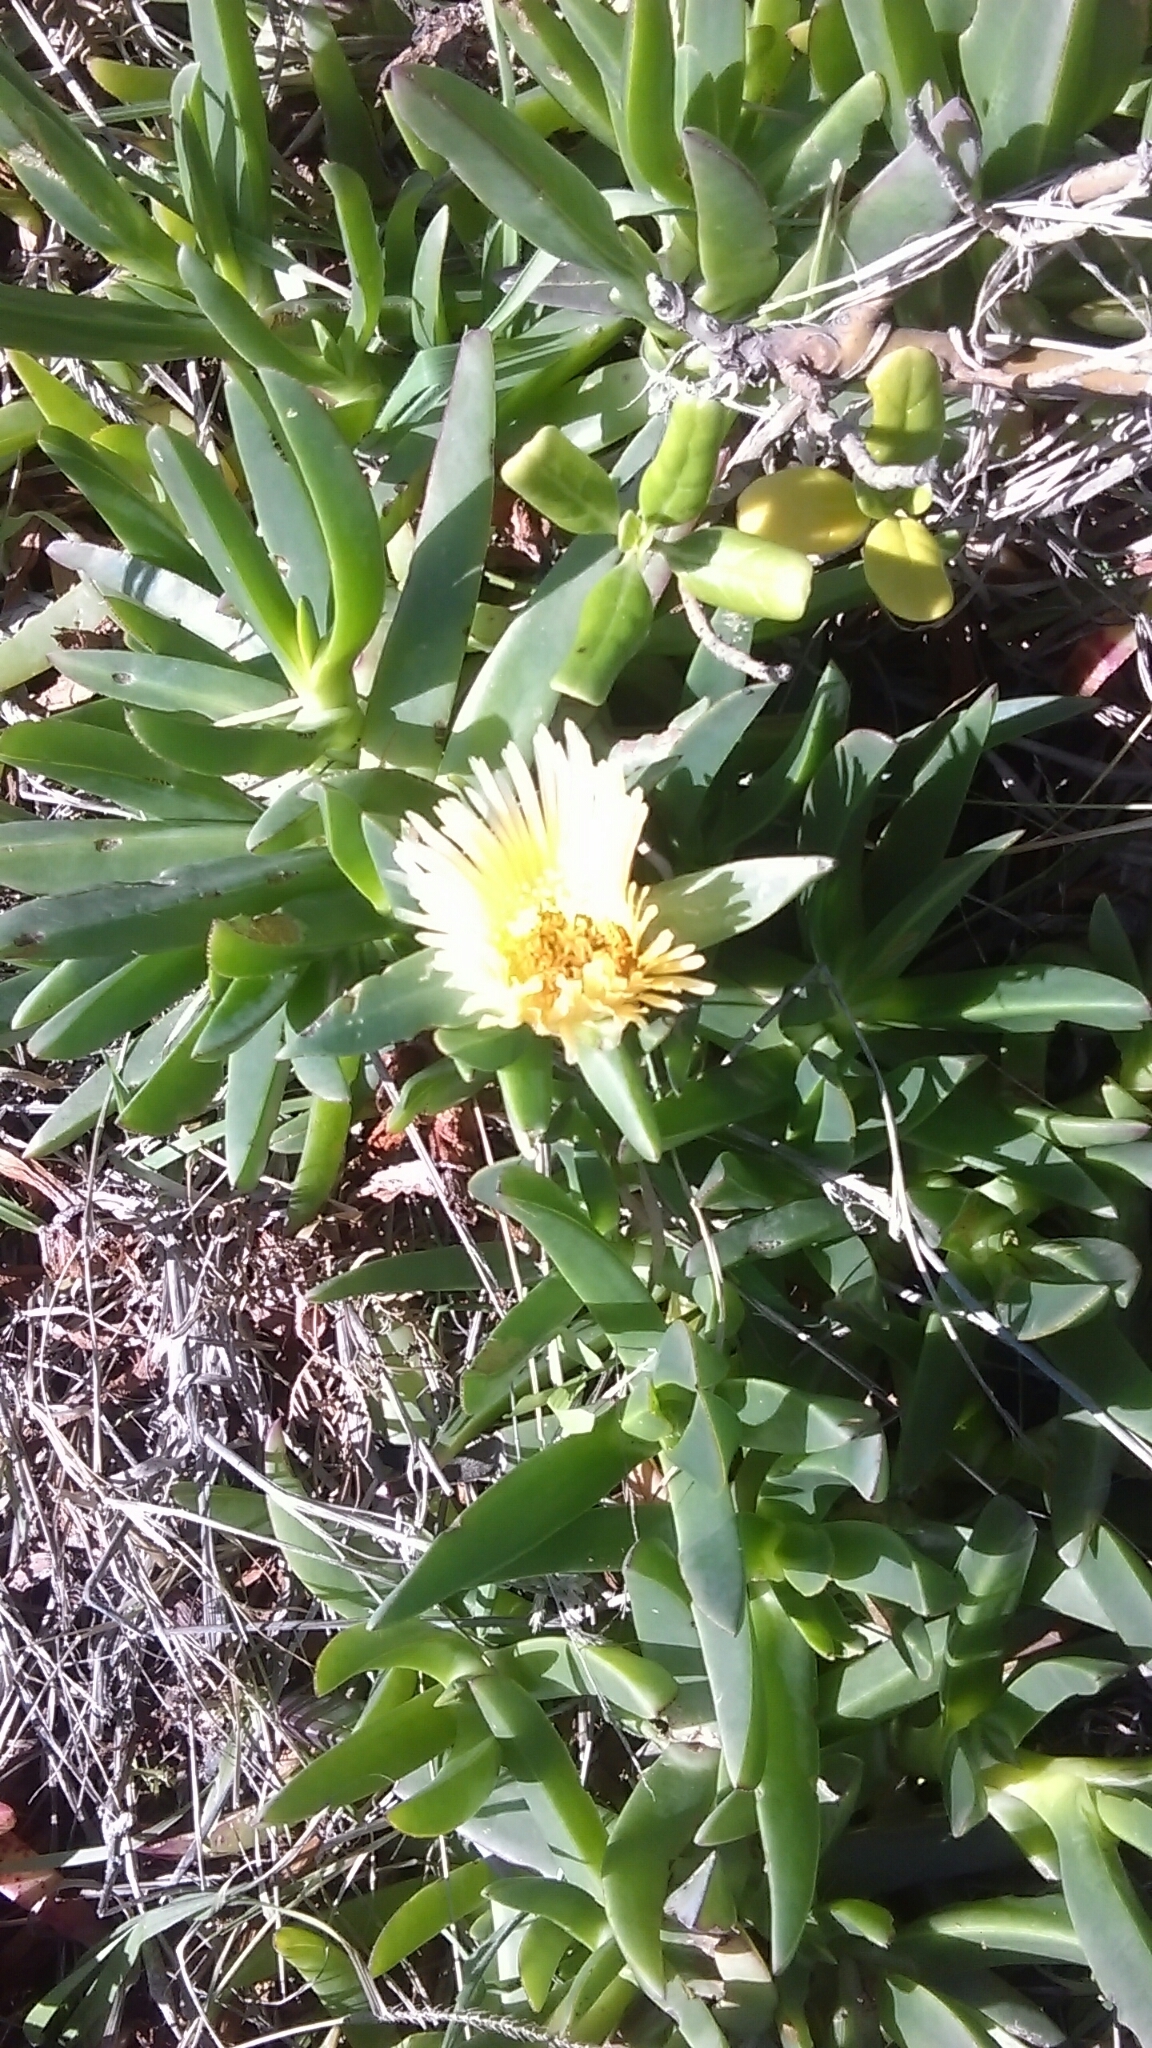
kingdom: Plantae
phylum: Tracheophyta
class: Magnoliopsida
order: Caryophyllales
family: Aizoaceae
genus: Carpobrotus
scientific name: Carpobrotus edulis
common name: Hottentot-fig
